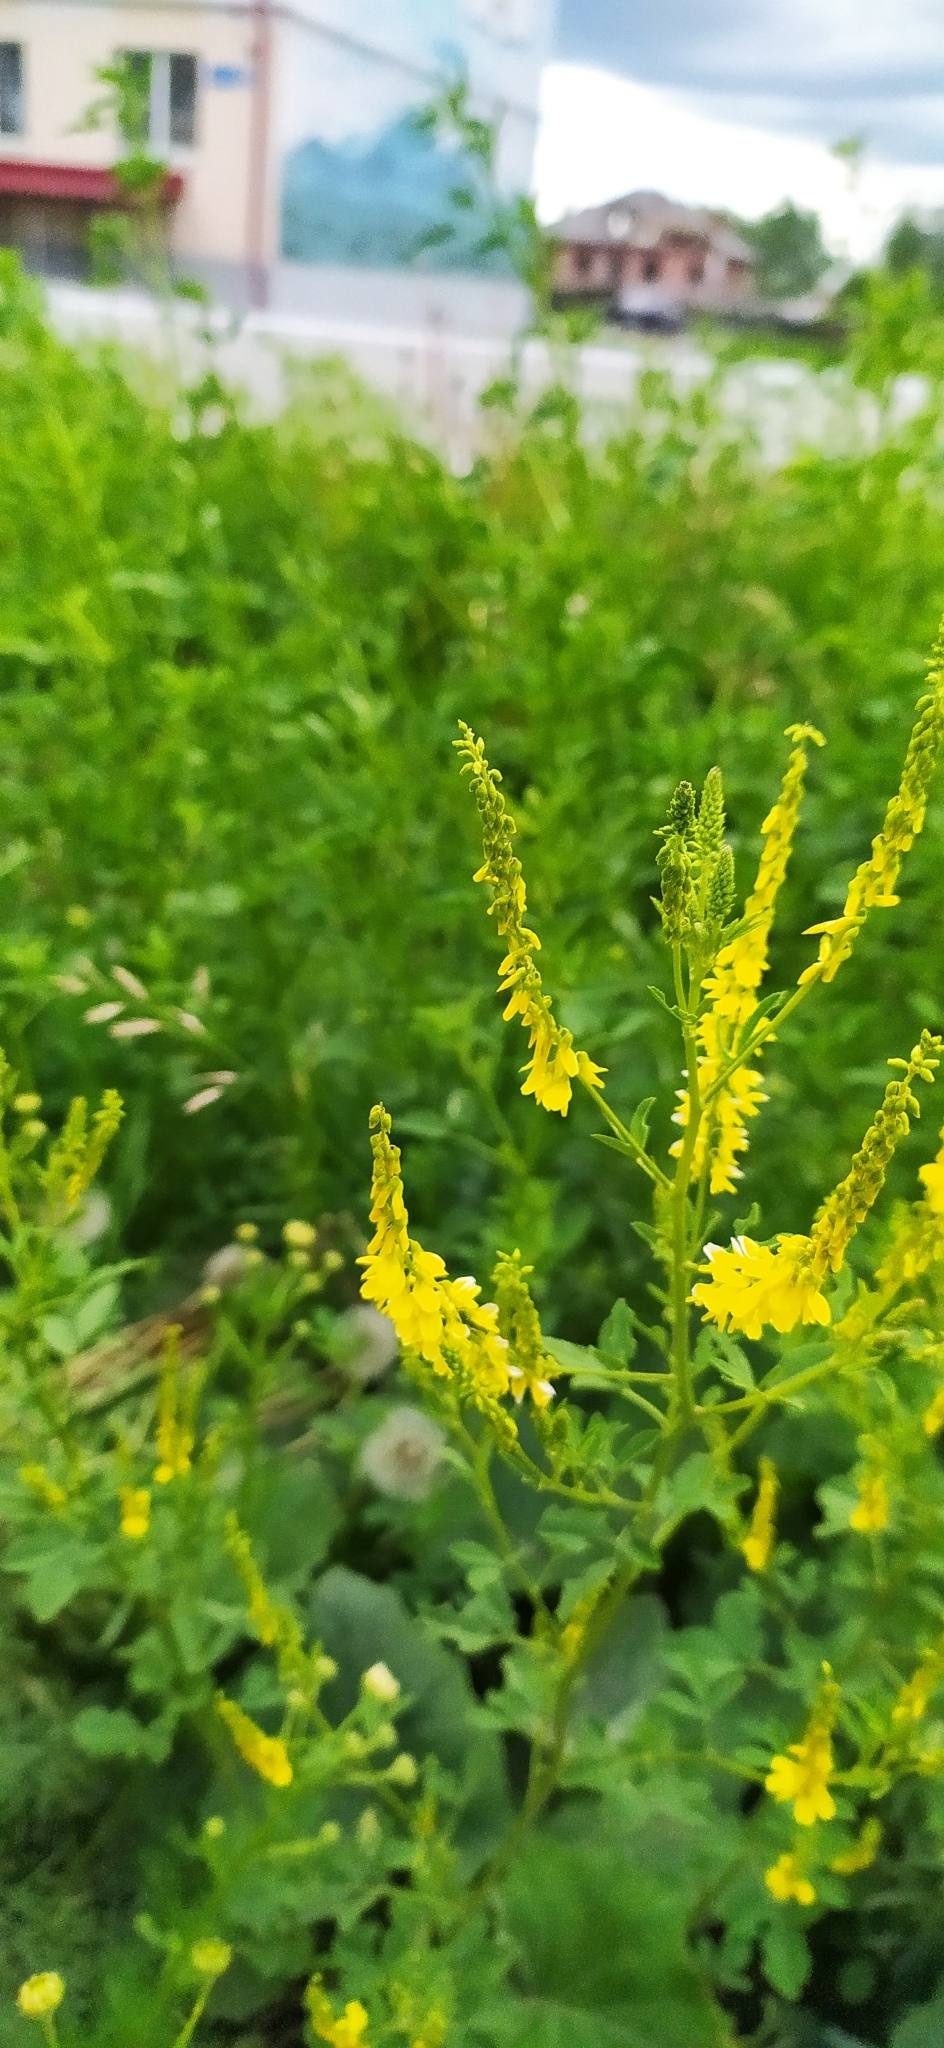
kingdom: Plantae
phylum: Tracheophyta
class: Magnoliopsida
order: Fabales
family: Fabaceae
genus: Melilotus
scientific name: Melilotus officinalis
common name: Sweetclover
